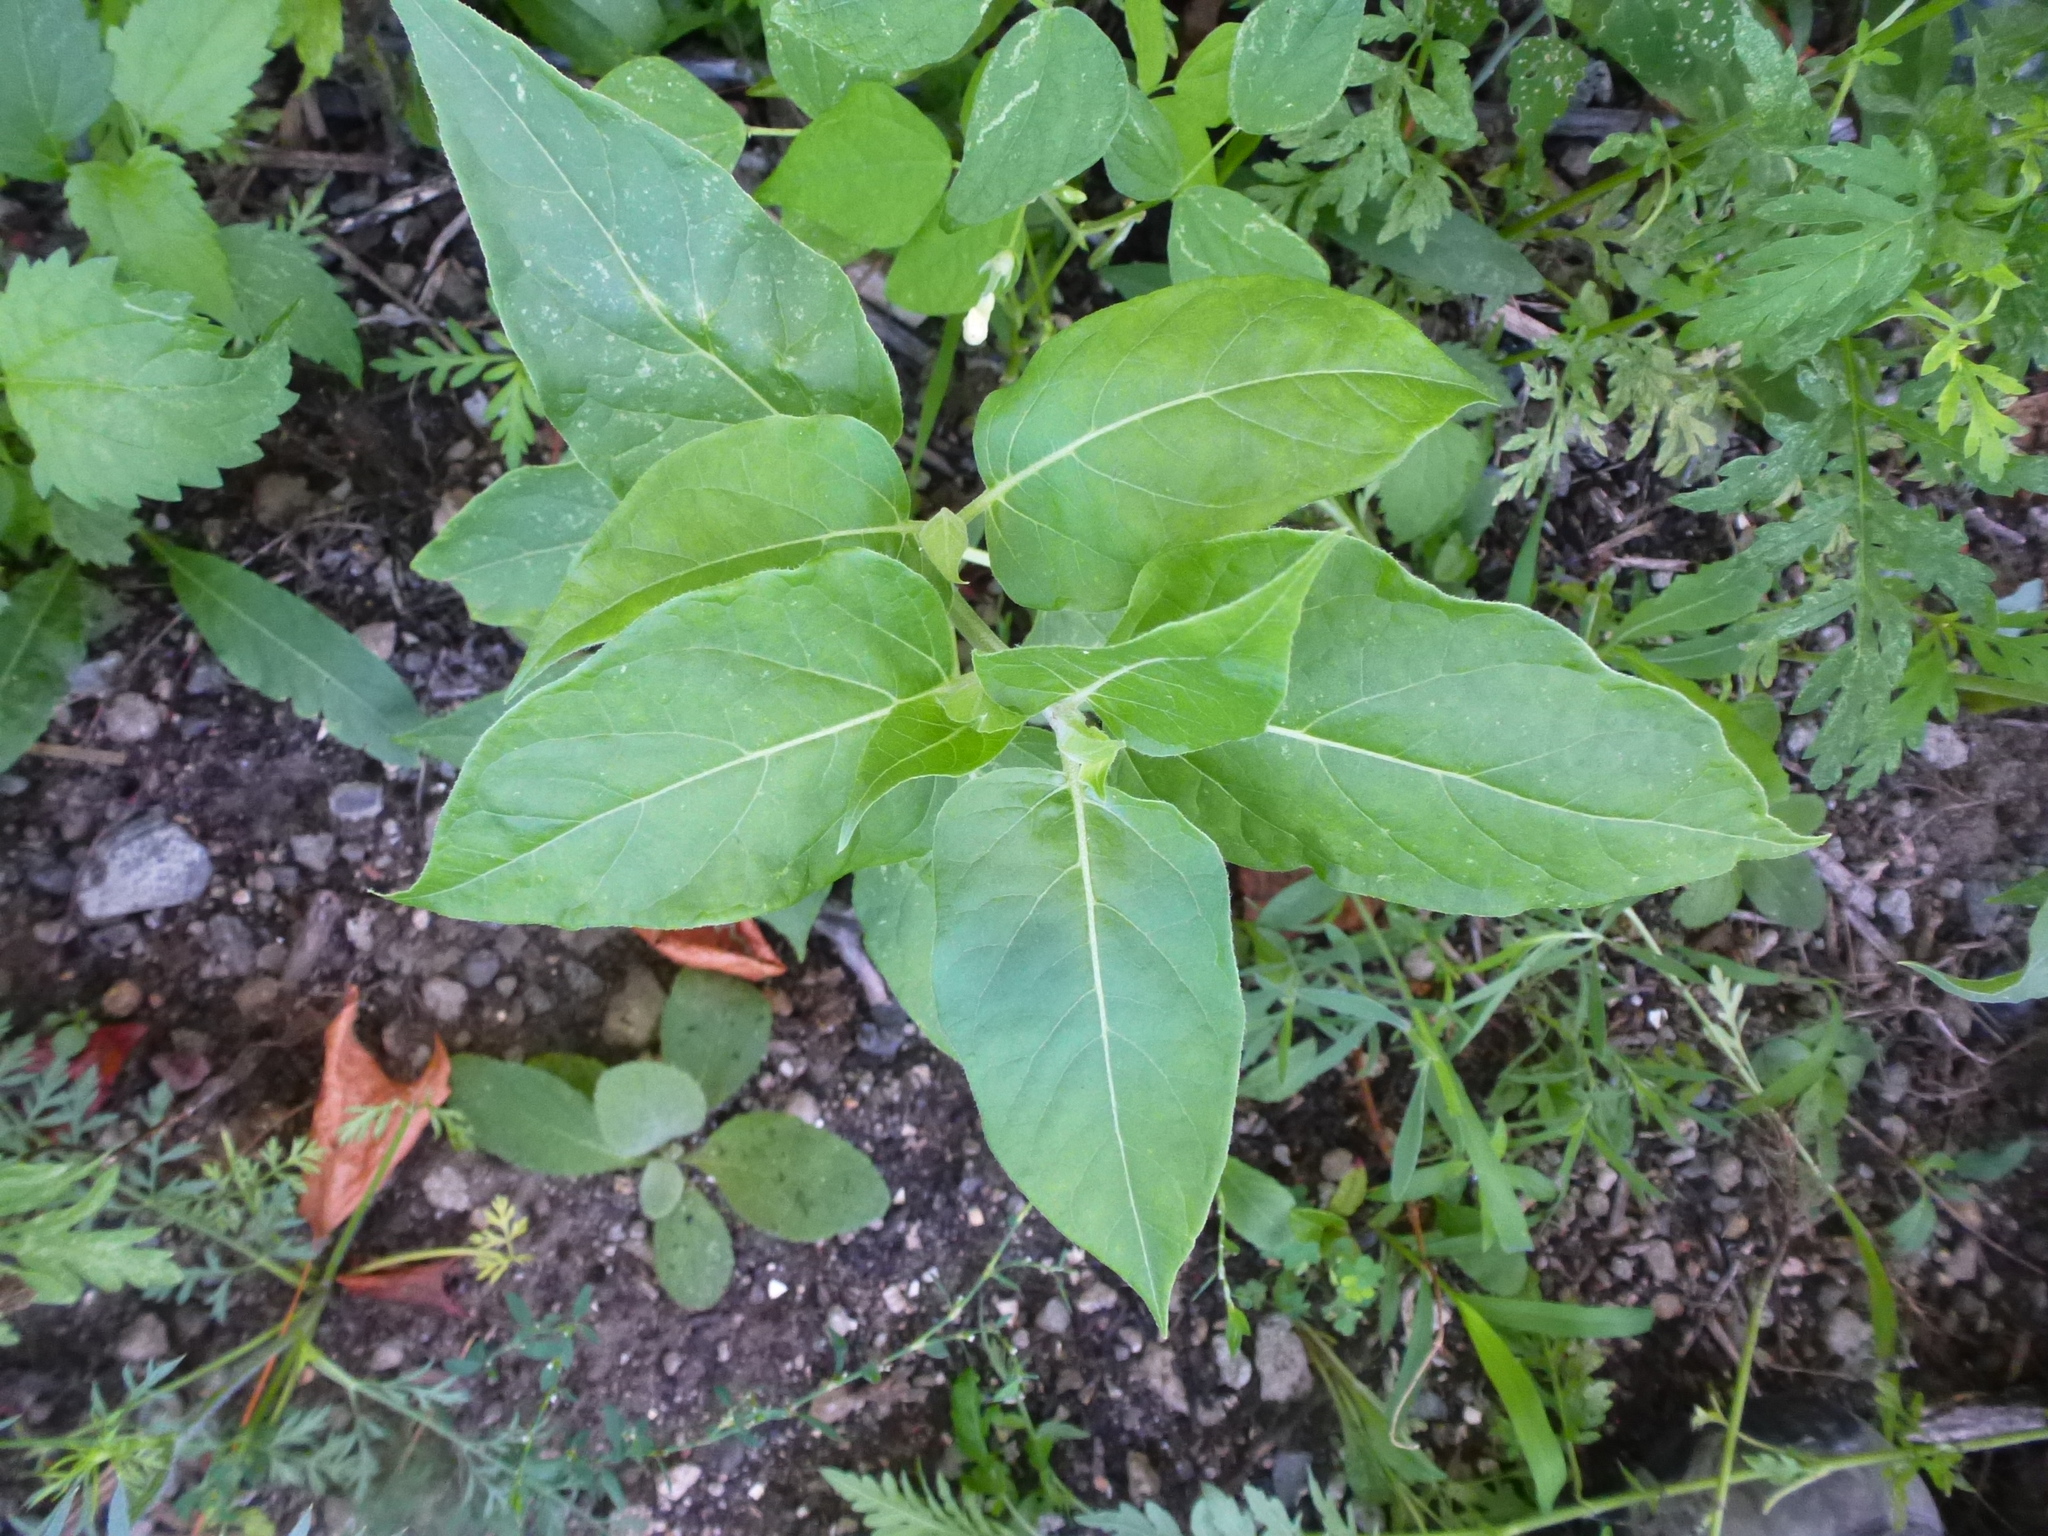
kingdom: Plantae
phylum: Tracheophyta
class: Magnoliopsida
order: Caryophyllales
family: Nyctaginaceae
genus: Mirabilis
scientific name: Mirabilis nyctaginea
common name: Umbrella wort
